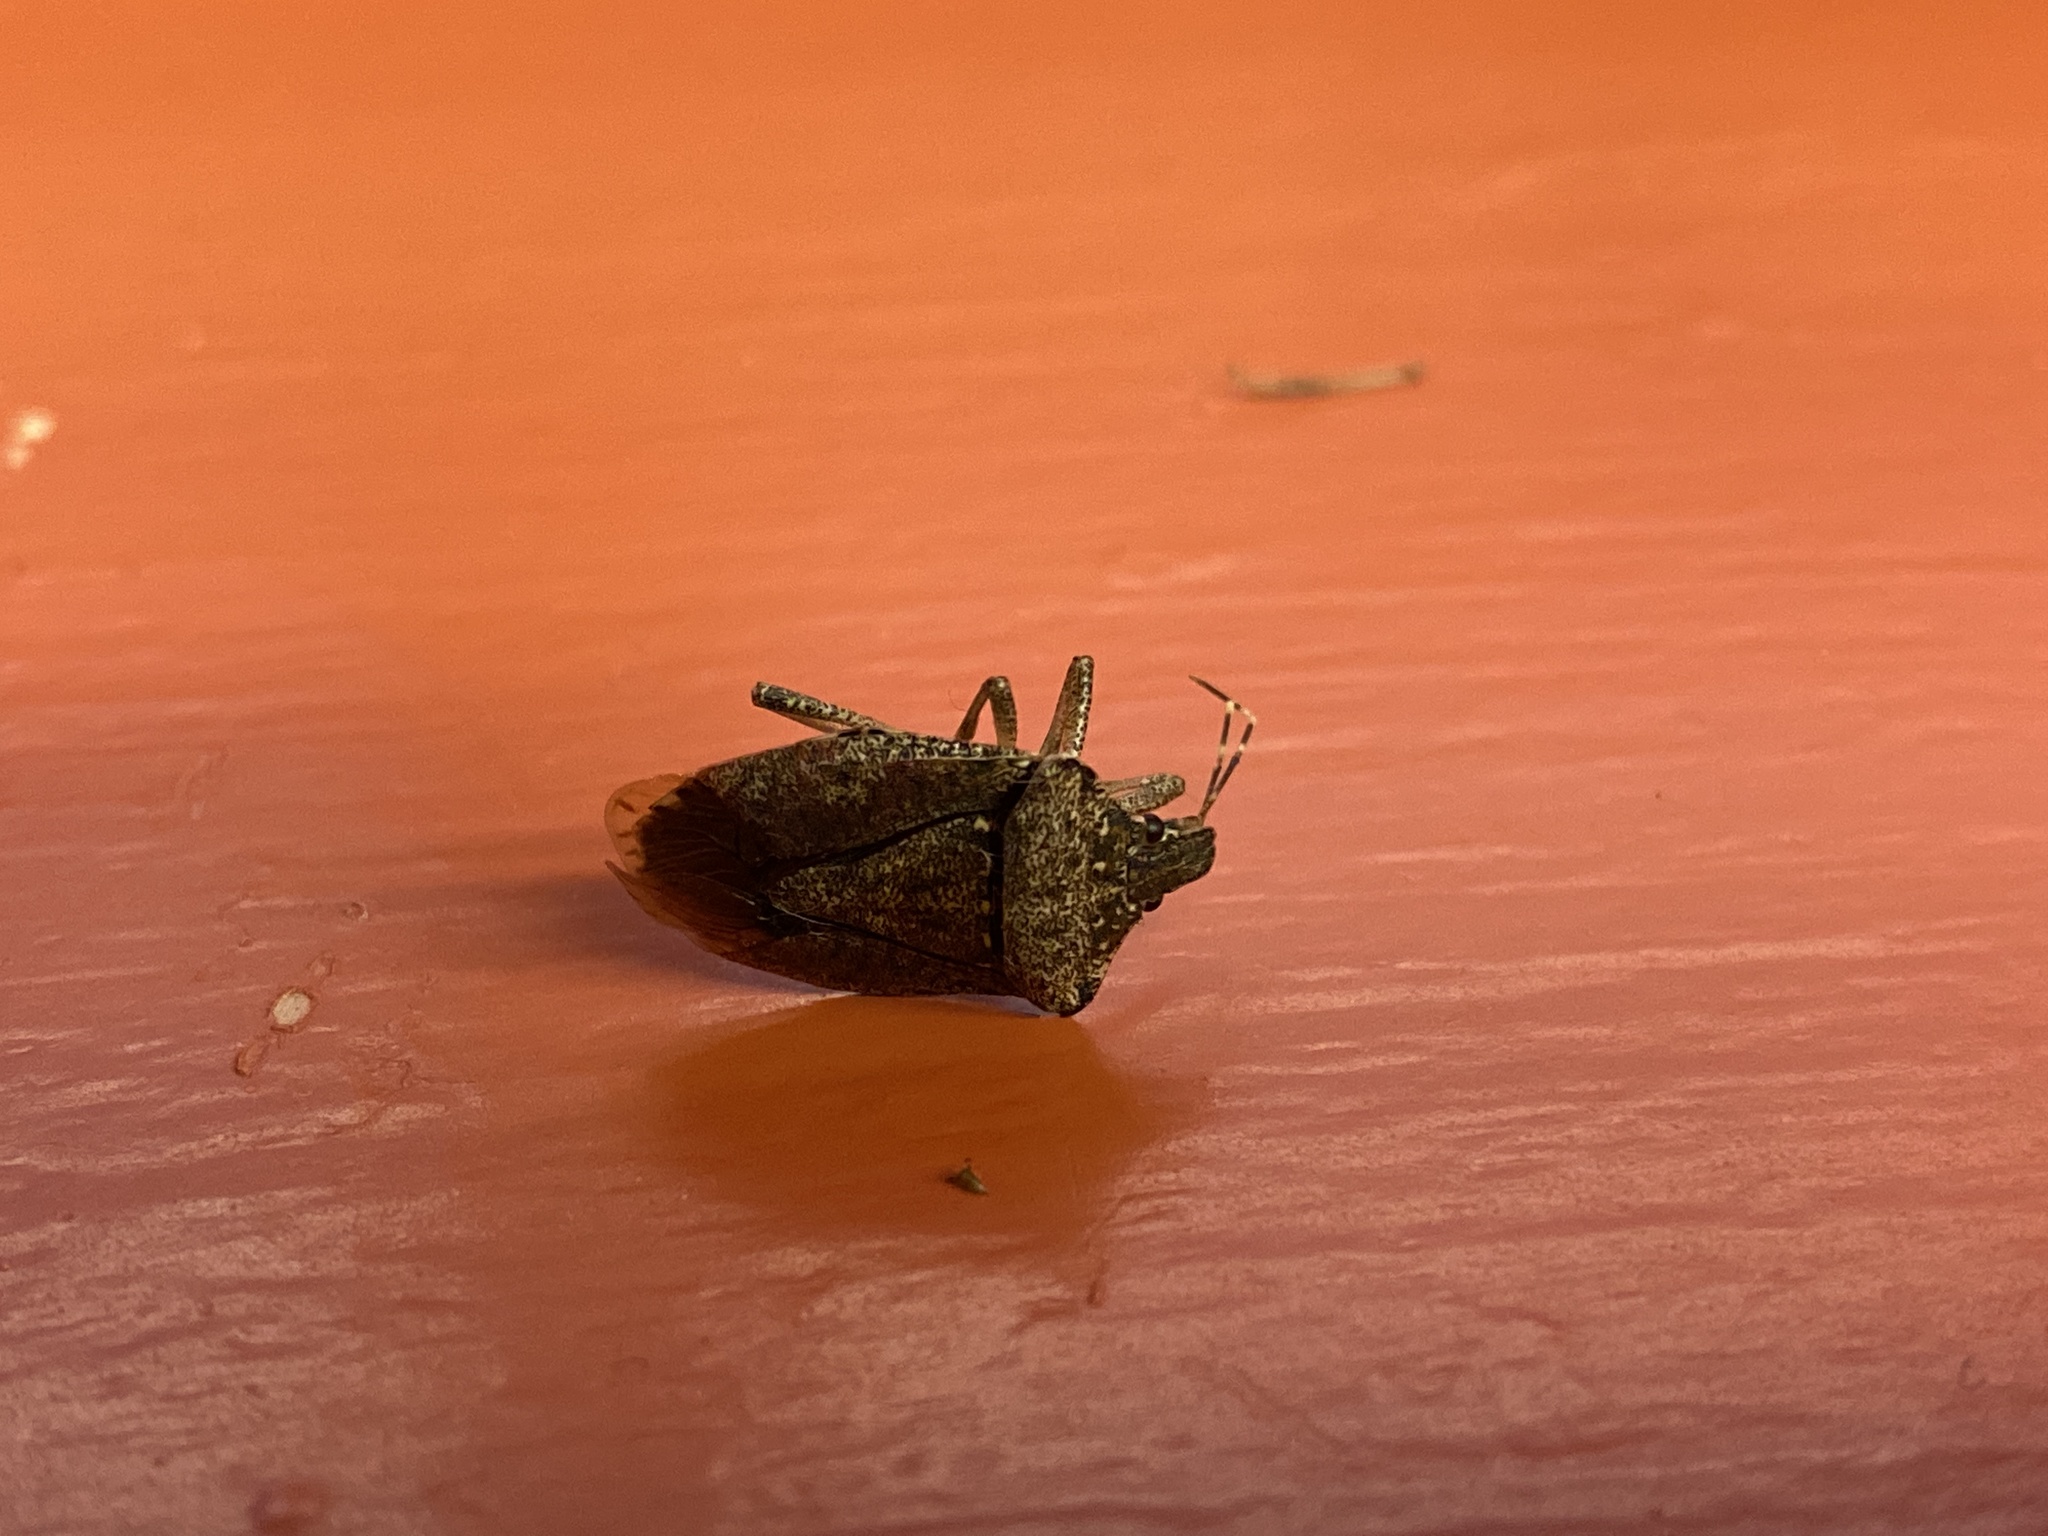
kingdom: Animalia
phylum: Arthropoda
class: Insecta
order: Hemiptera
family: Pentatomidae
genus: Halyomorpha
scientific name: Halyomorpha halys
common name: Brown marmorated stink bug
